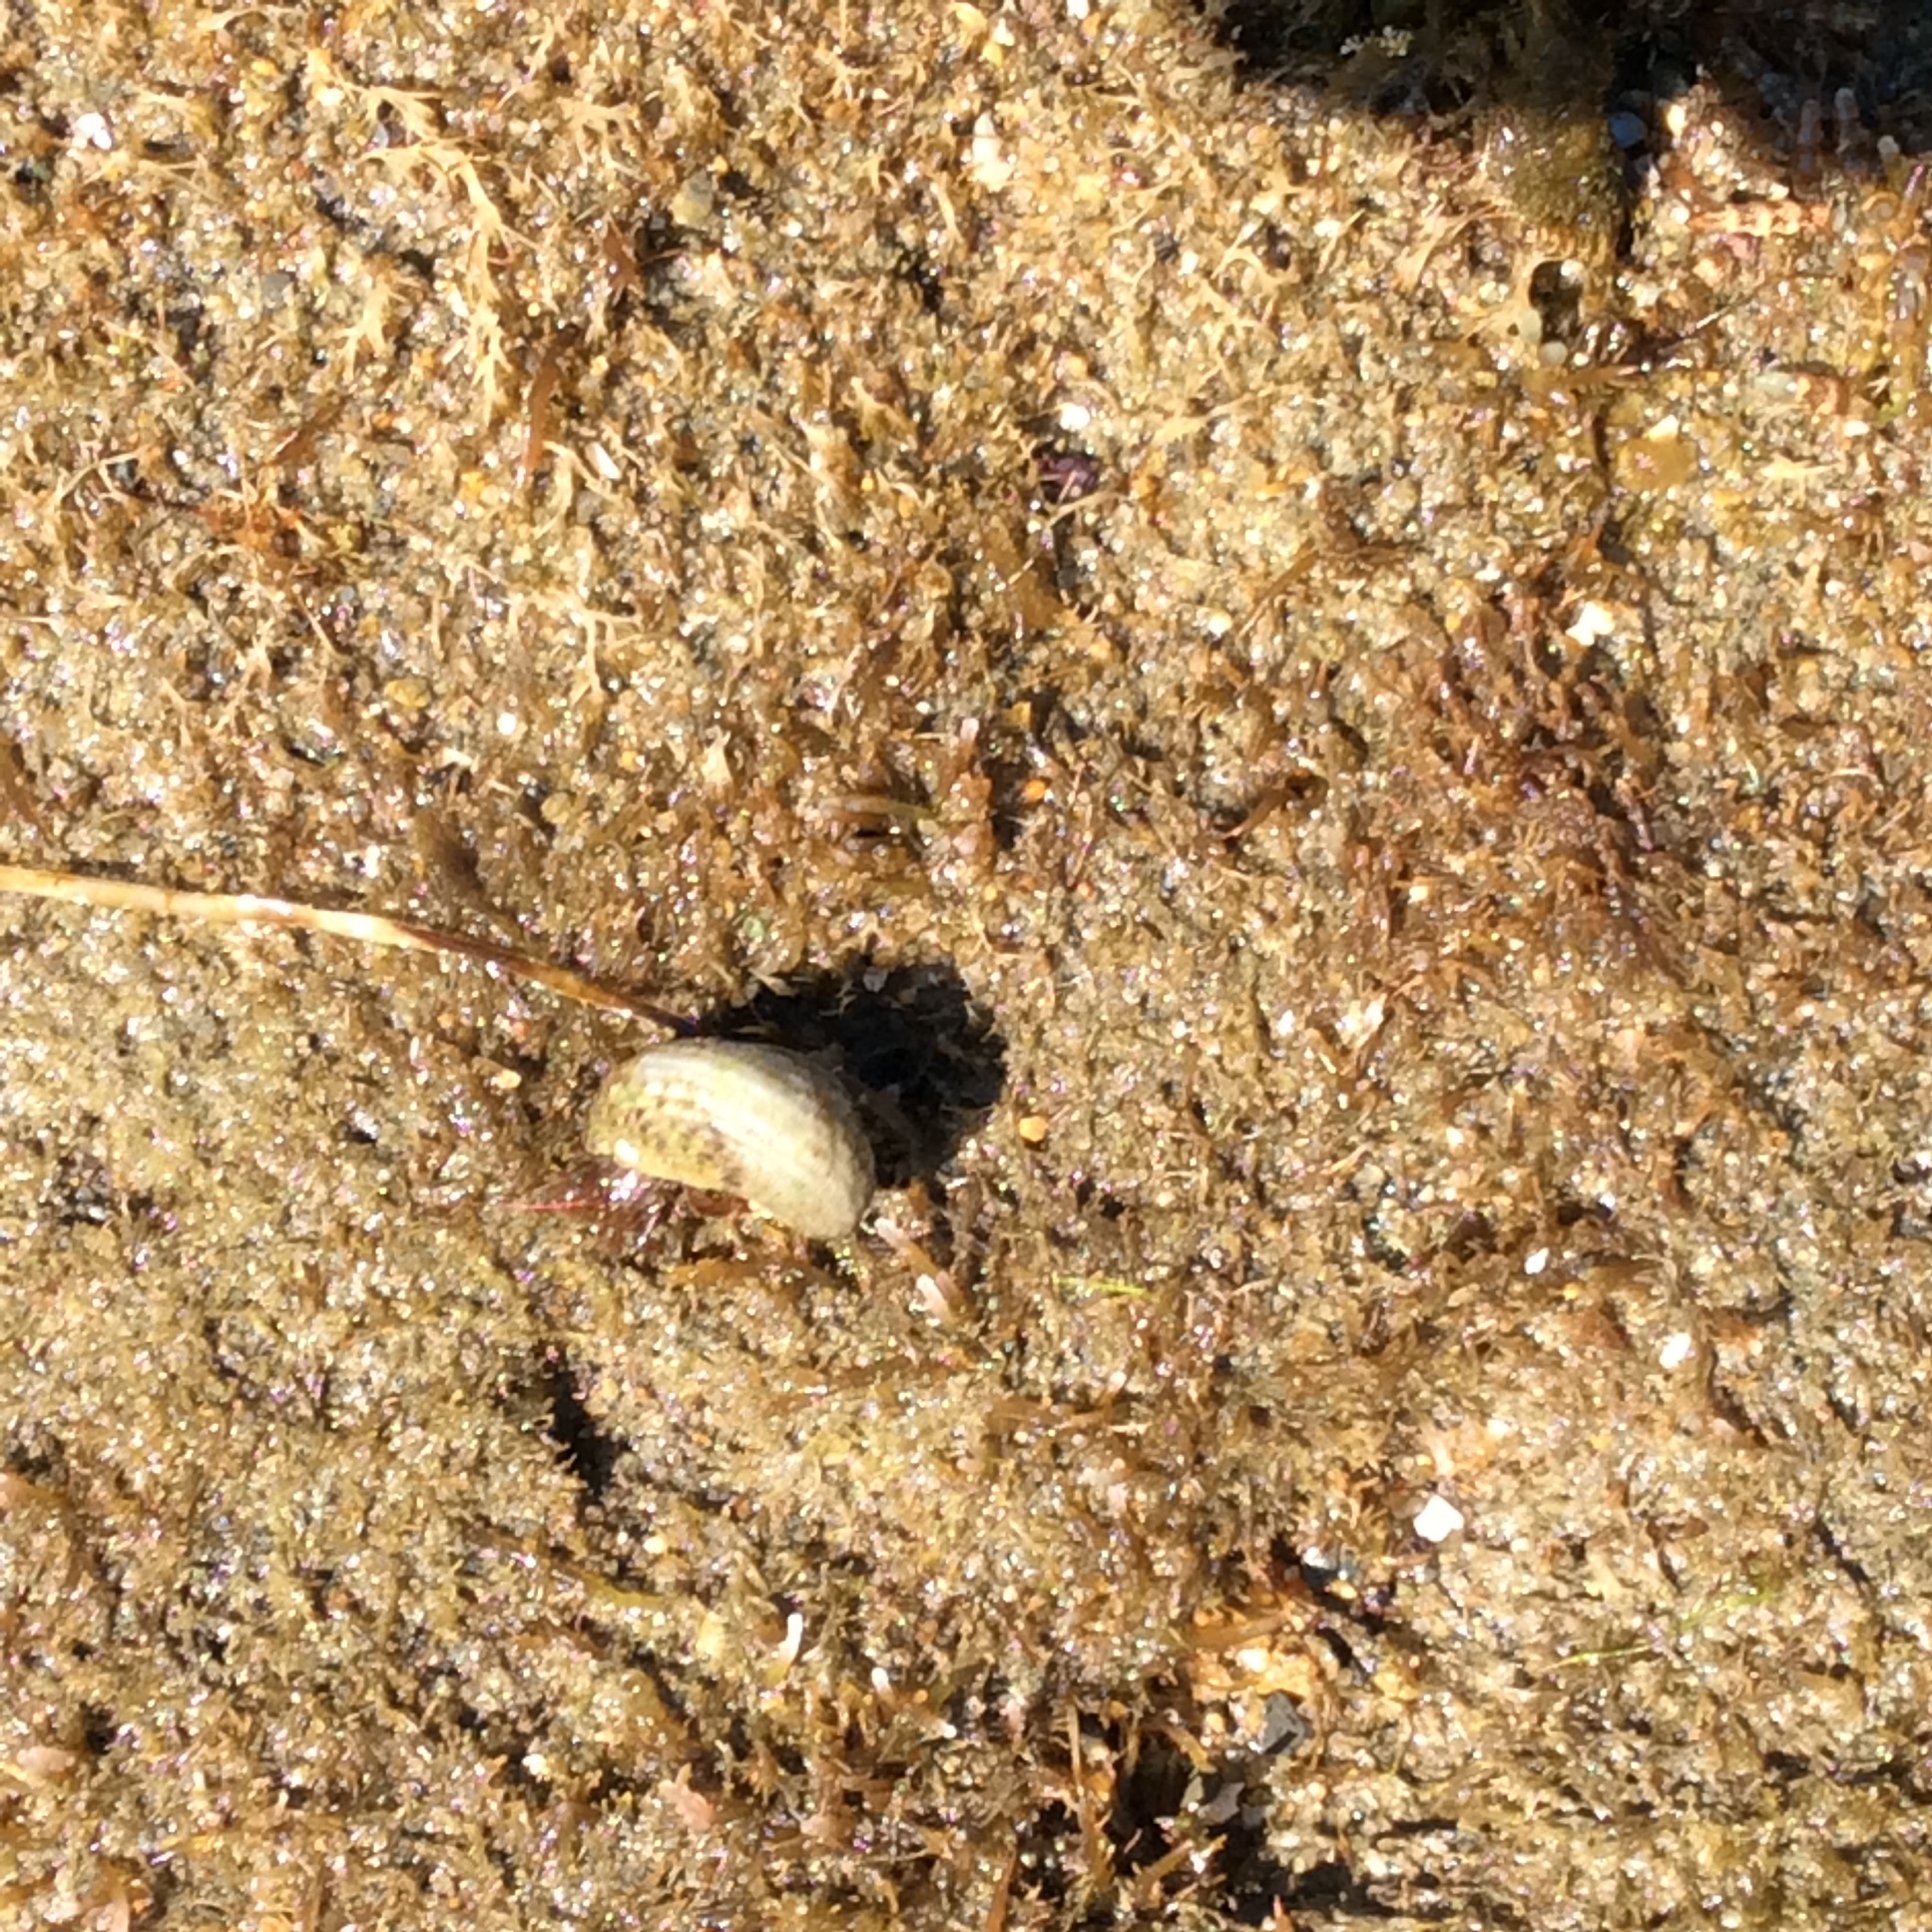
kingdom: Animalia
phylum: Mollusca
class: Gastropoda
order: Trochida
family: Tegulidae
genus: Tegula
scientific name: Tegula eiseni
